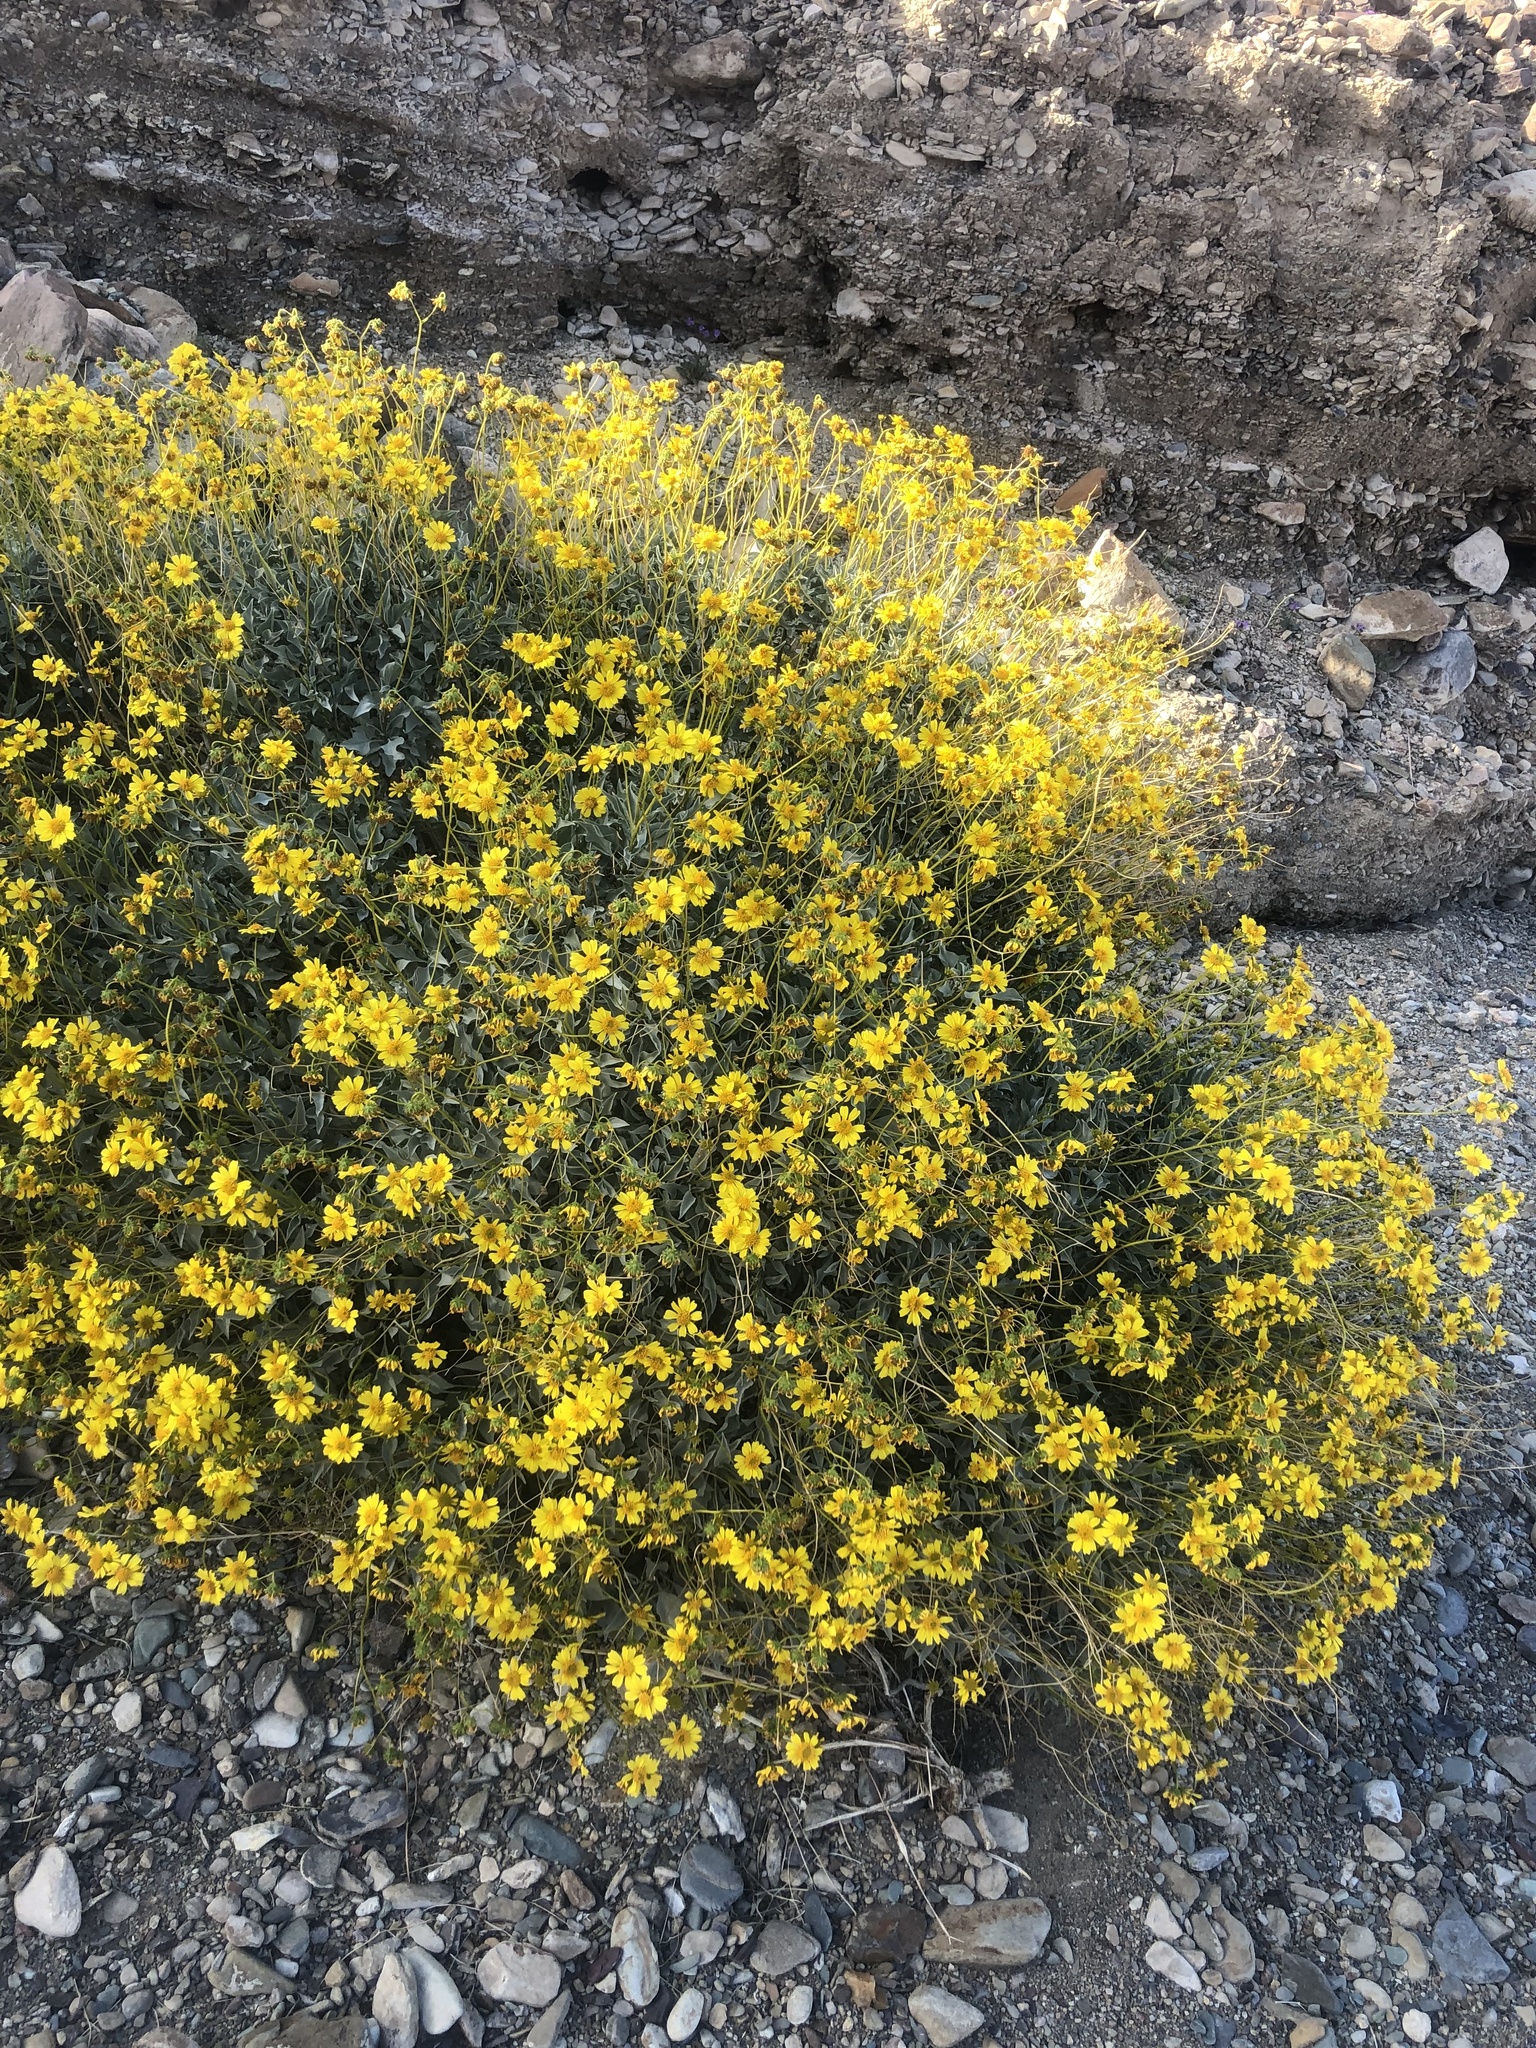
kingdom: Plantae
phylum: Tracheophyta
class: Magnoliopsida
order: Asterales
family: Asteraceae
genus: Encelia
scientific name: Encelia farinosa
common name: Brittlebush
